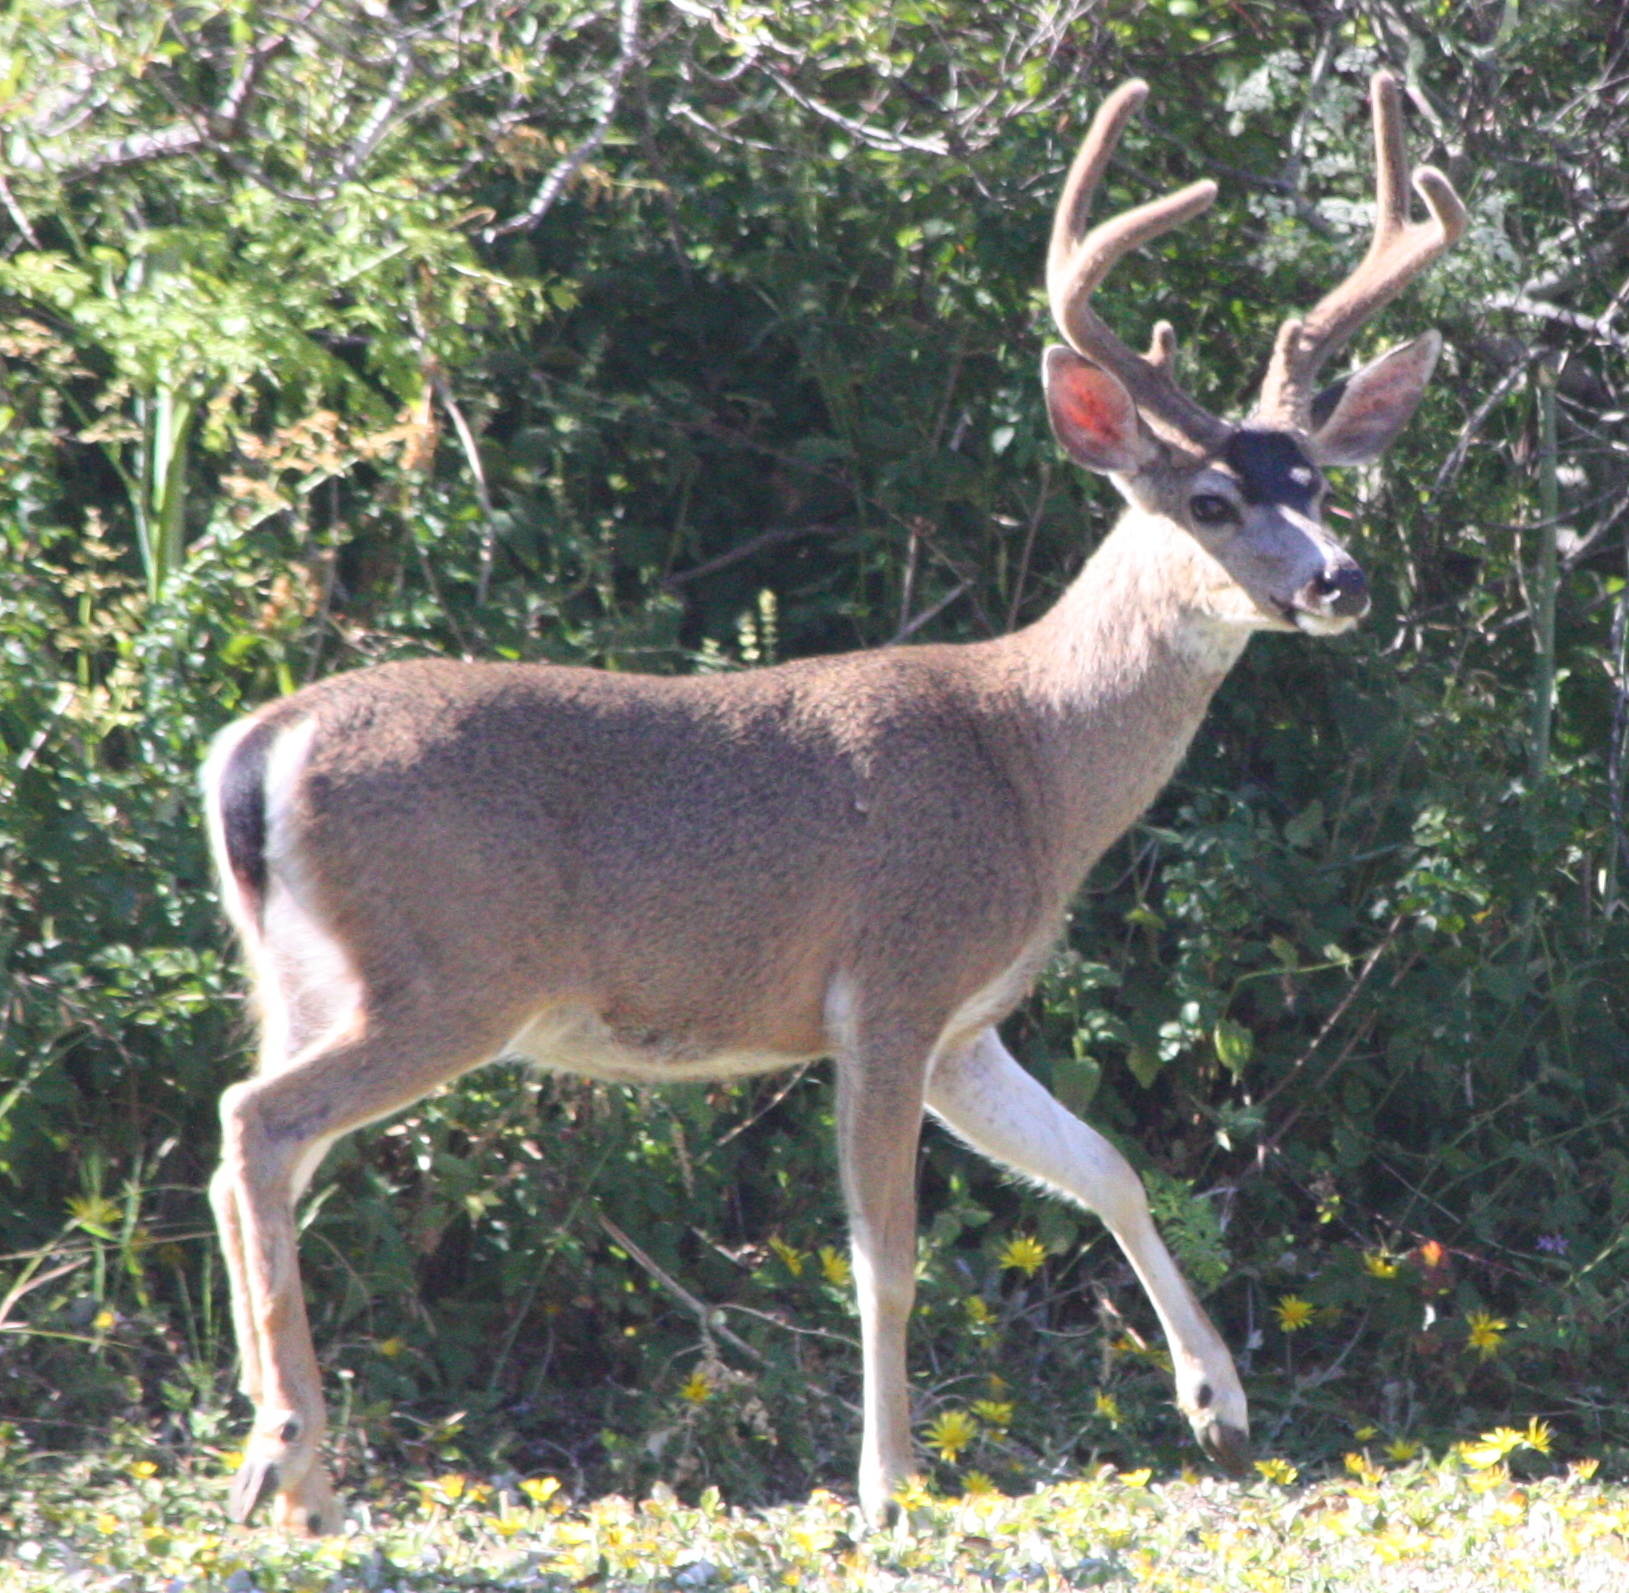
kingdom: Animalia
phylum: Chordata
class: Mammalia
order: Artiodactyla
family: Cervidae
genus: Odocoileus
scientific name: Odocoileus hemionus
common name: Mule deer
